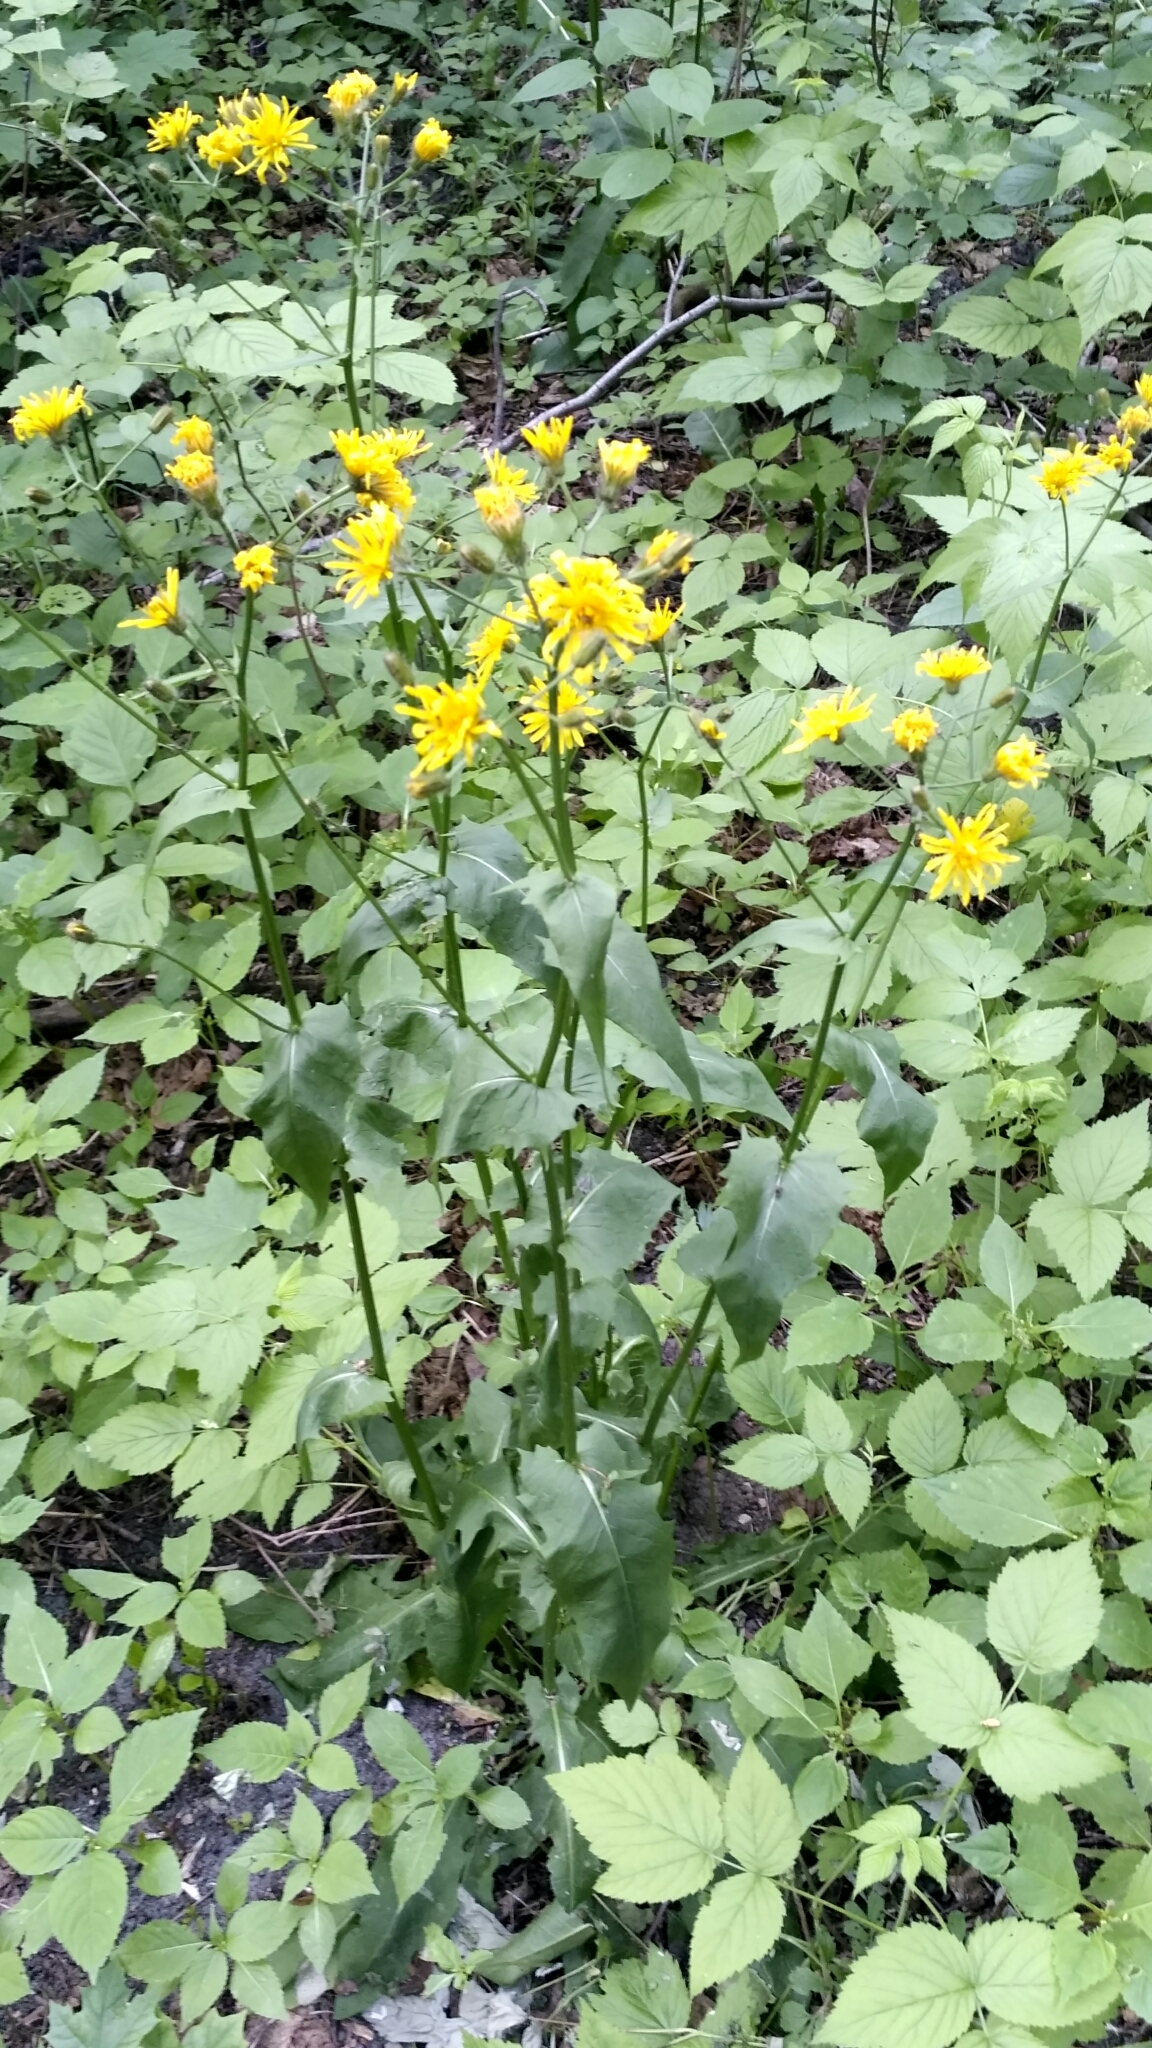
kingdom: Plantae
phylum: Tracheophyta
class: Magnoliopsida
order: Asterales
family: Asteraceae
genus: Crepis
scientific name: Crepis paludosa
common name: Marsh hawk's-beard
